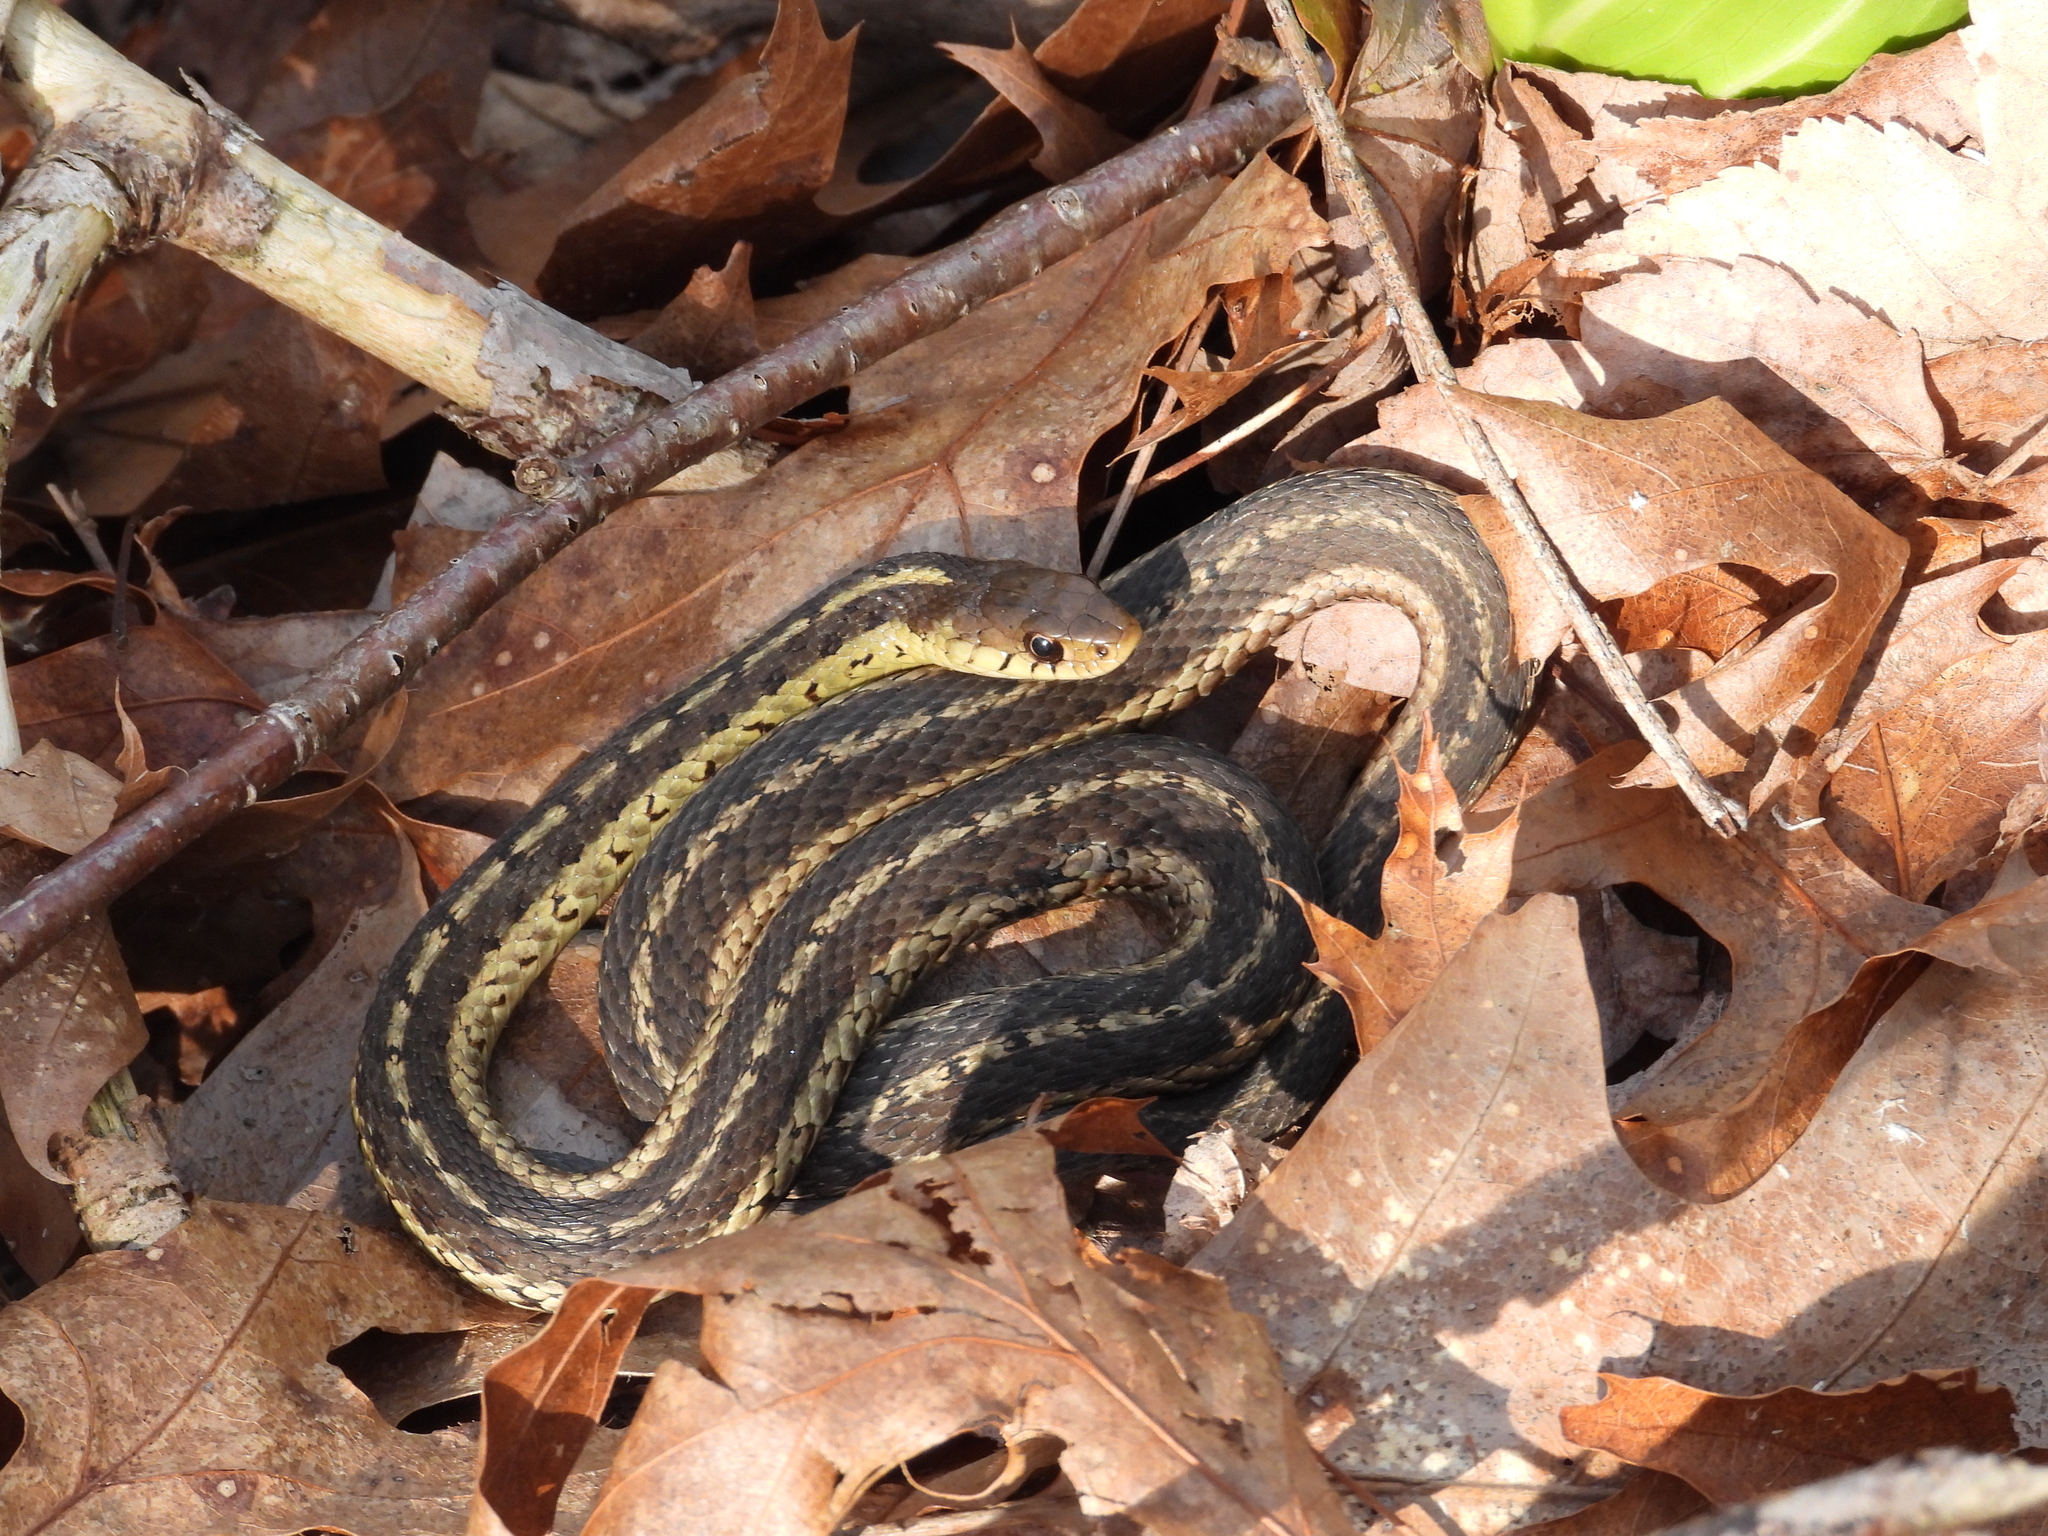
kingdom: Animalia
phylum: Chordata
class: Squamata
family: Colubridae
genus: Thamnophis
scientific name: Thamnophis sirtalis
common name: Common garter snake
